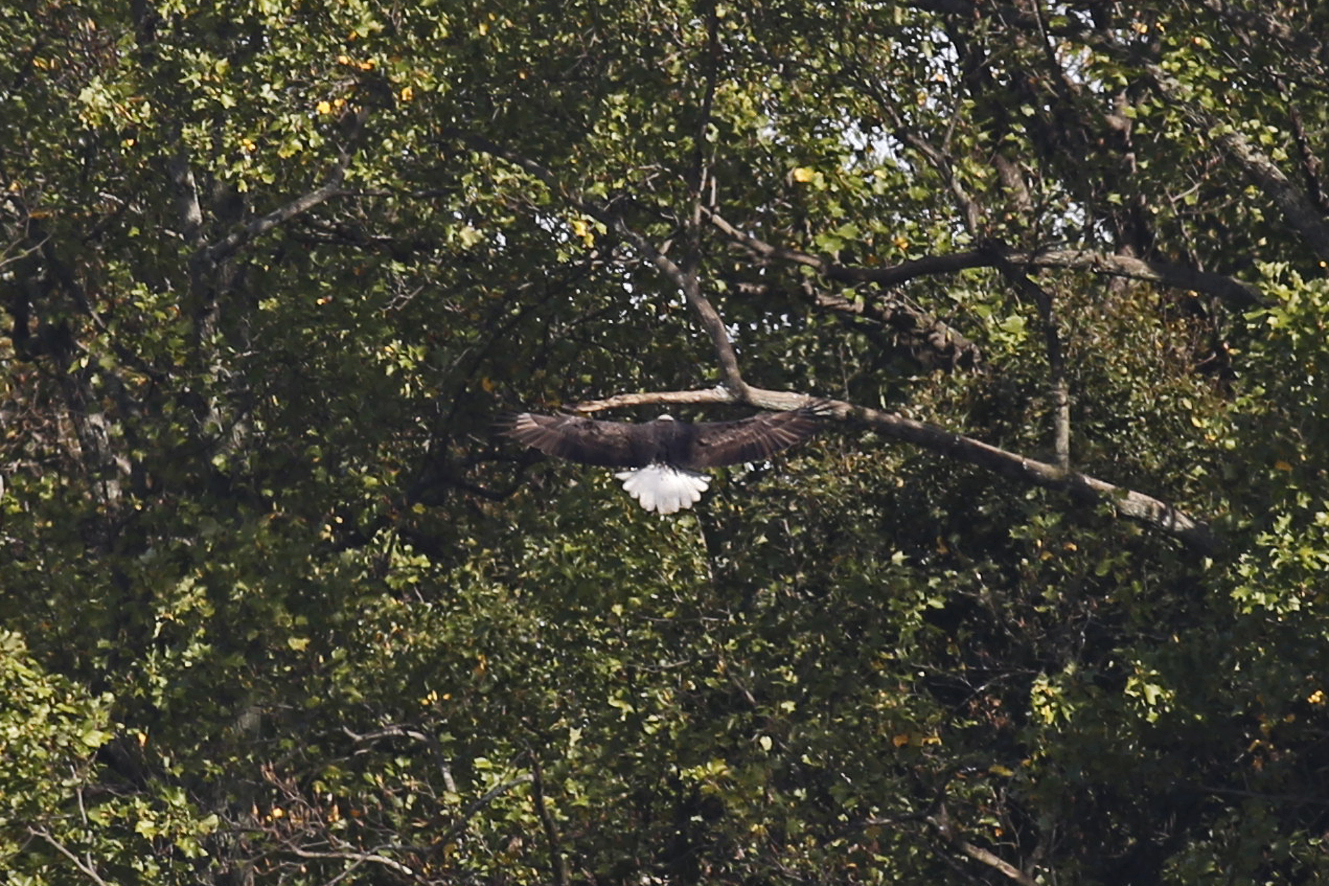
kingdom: Animalia
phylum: Chordata
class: Aves
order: Accipitriformes
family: Accipitridae
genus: Haliaeetus
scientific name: Haliaeetus leucocephalus
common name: Bald eagle
